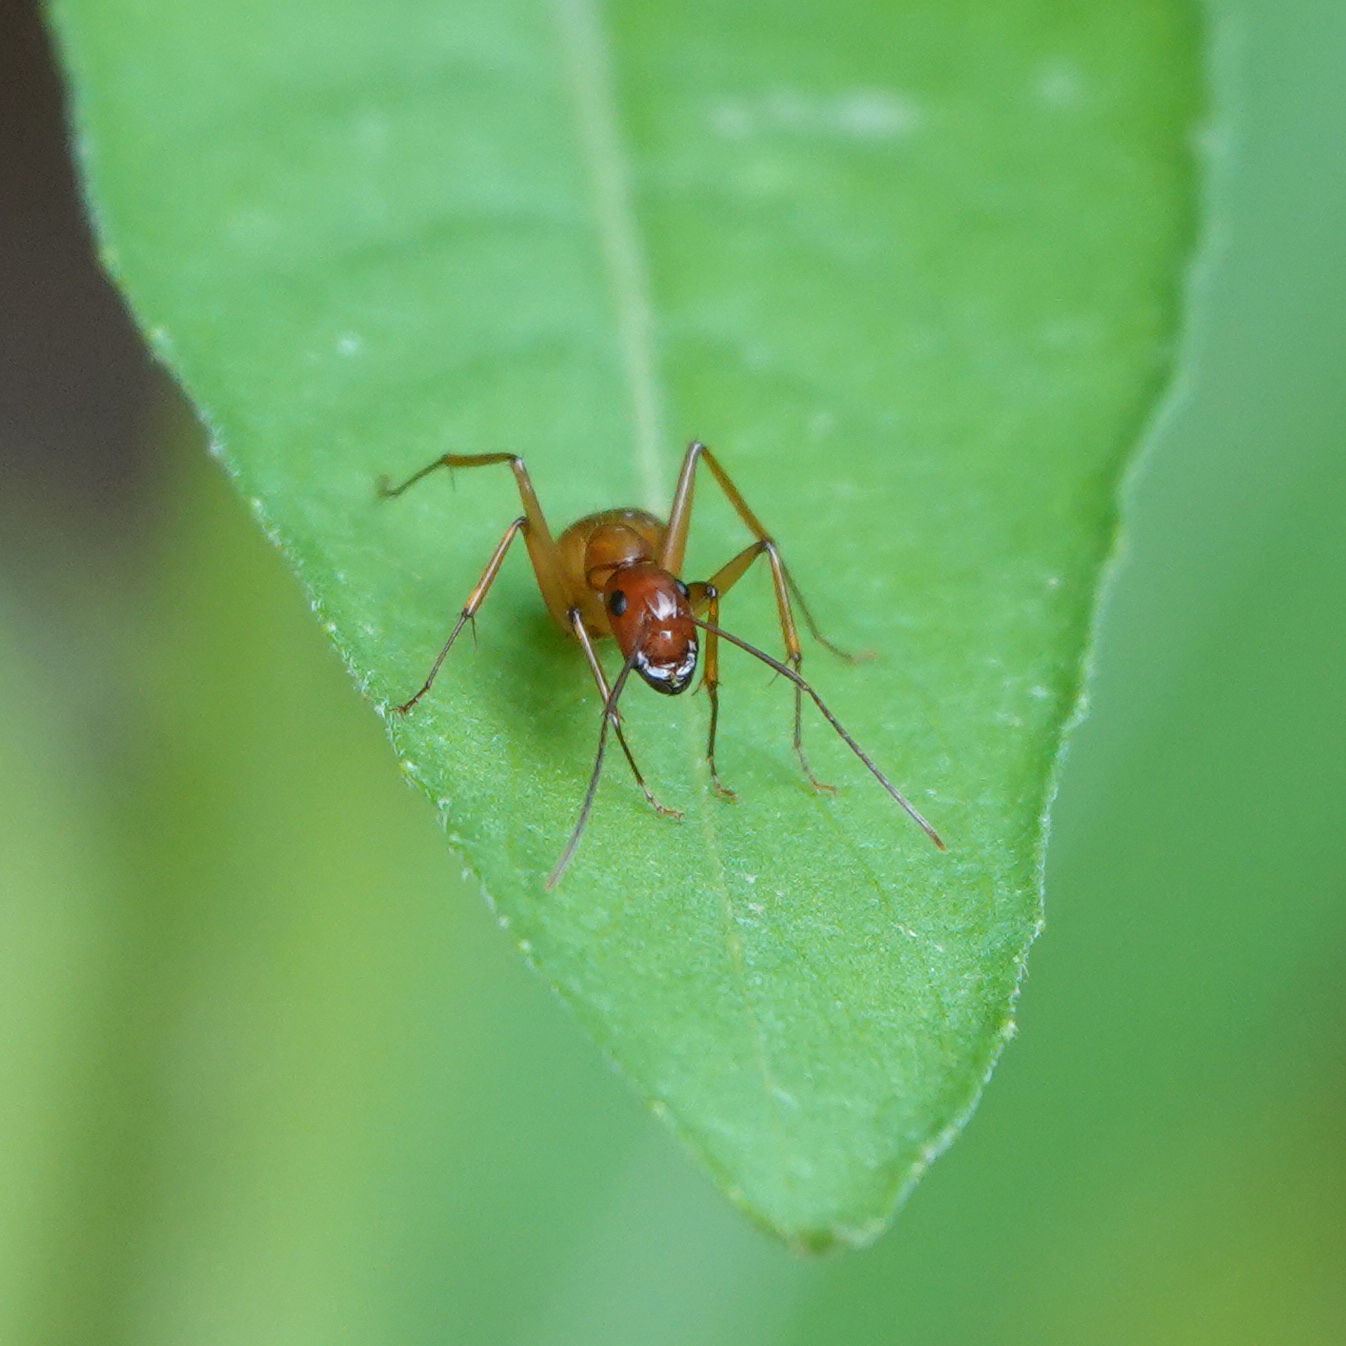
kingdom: Animalia
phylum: Arthropoda
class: Insecta
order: Hymenoptera
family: Formicidae
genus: Camponotus
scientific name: Camponotus castaneus
